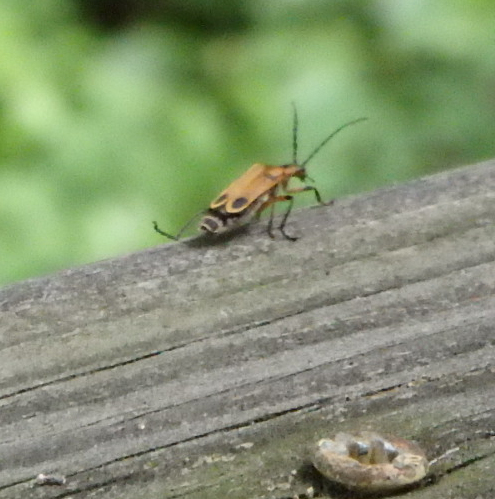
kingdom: Animalia
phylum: Arthropoda
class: Insecta
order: Coleoptera
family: Cantharidae
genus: Chauliognathus
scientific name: Chauliognathus marginatus
